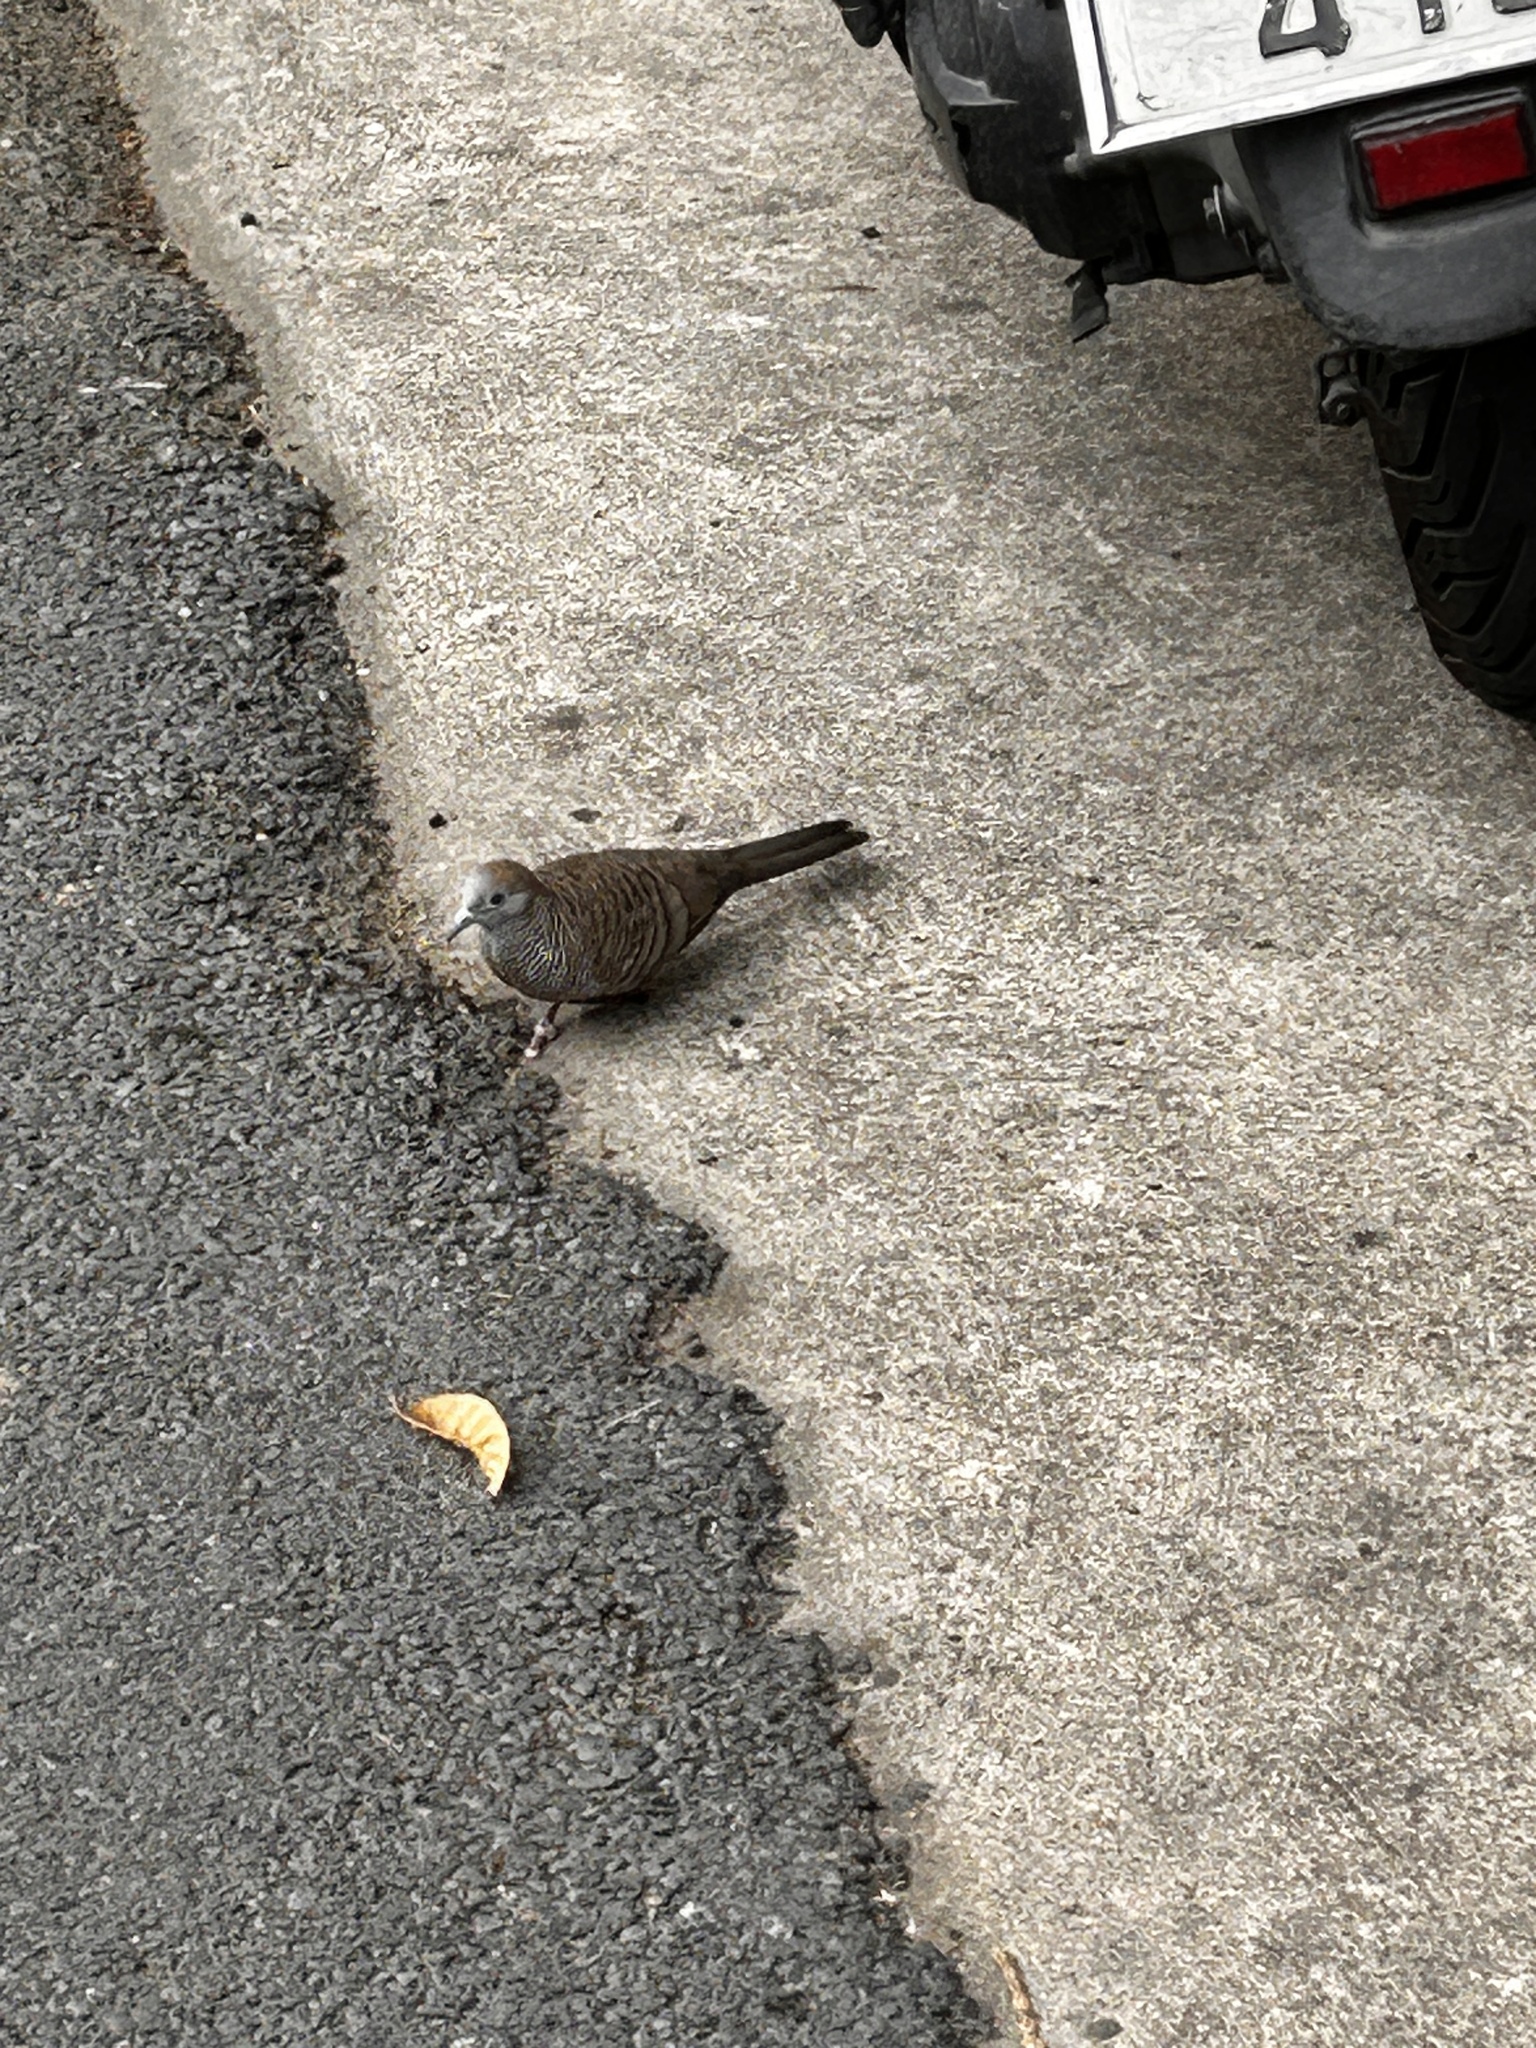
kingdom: Animalia
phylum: Chordata
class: Aves
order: Columbiformes
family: Columbidae
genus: Geopelia
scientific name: Geopelia striata
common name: Zebra dove
